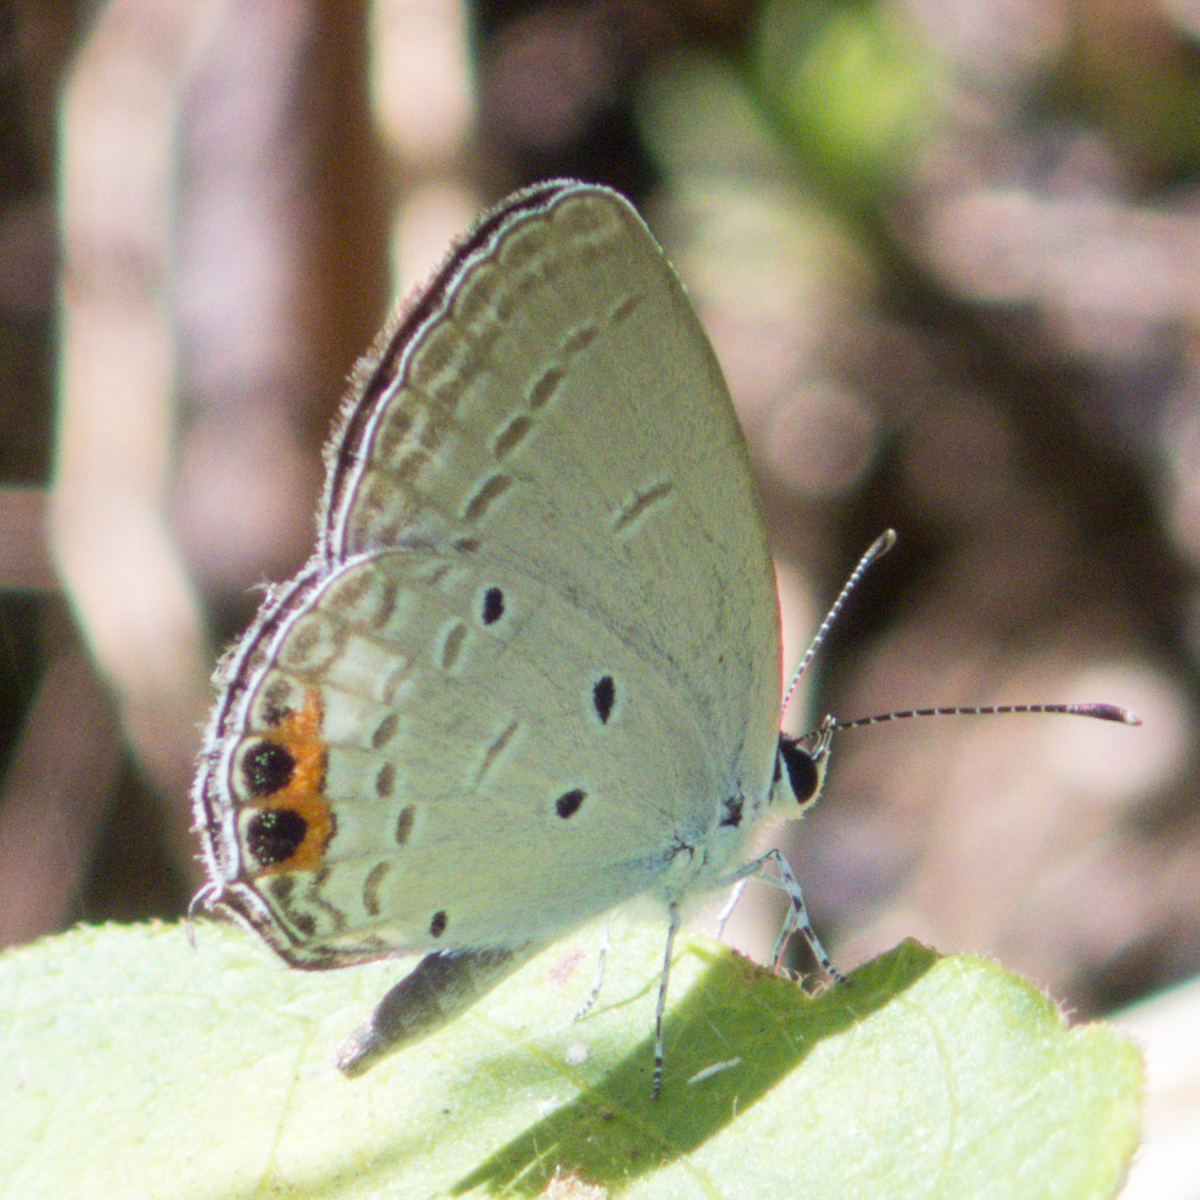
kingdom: Animalia
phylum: Arthropoda
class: Insecta
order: Lepidoptera
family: Lycaenidae
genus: Everes
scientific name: Everes lacturnus
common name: Orange-tipped pea-blue
